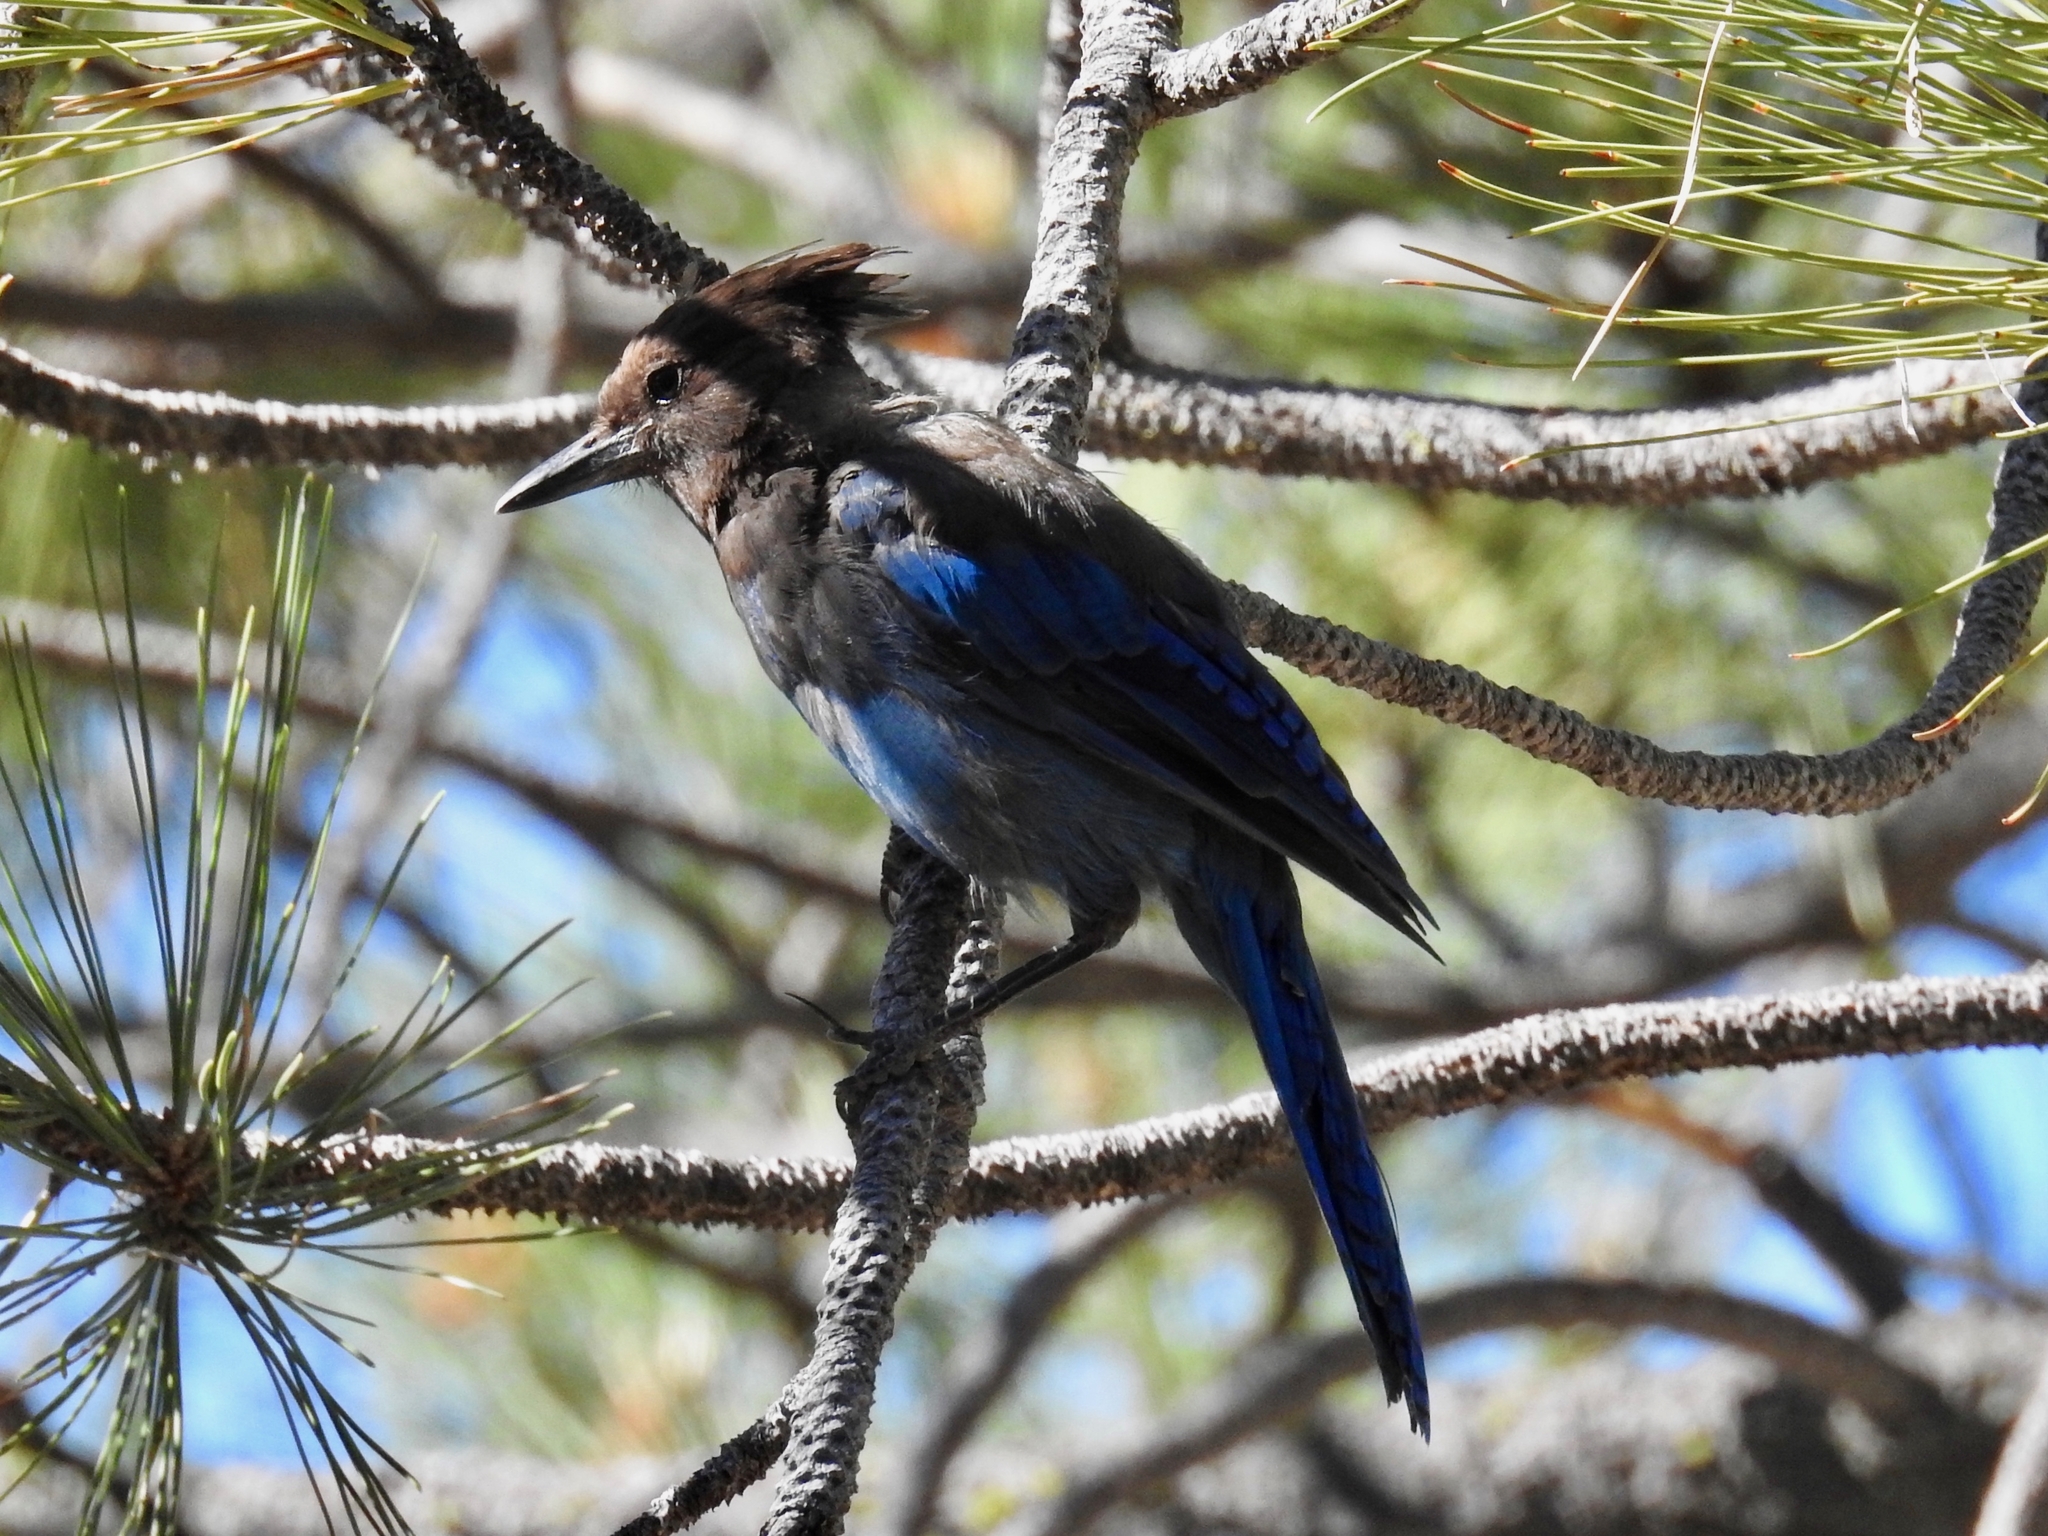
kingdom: Animalia
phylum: Chordata
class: Aves
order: Passeriformes
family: Corvidae
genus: Cyanocitta
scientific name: Cyanocitta stelleri
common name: Steller's jay
